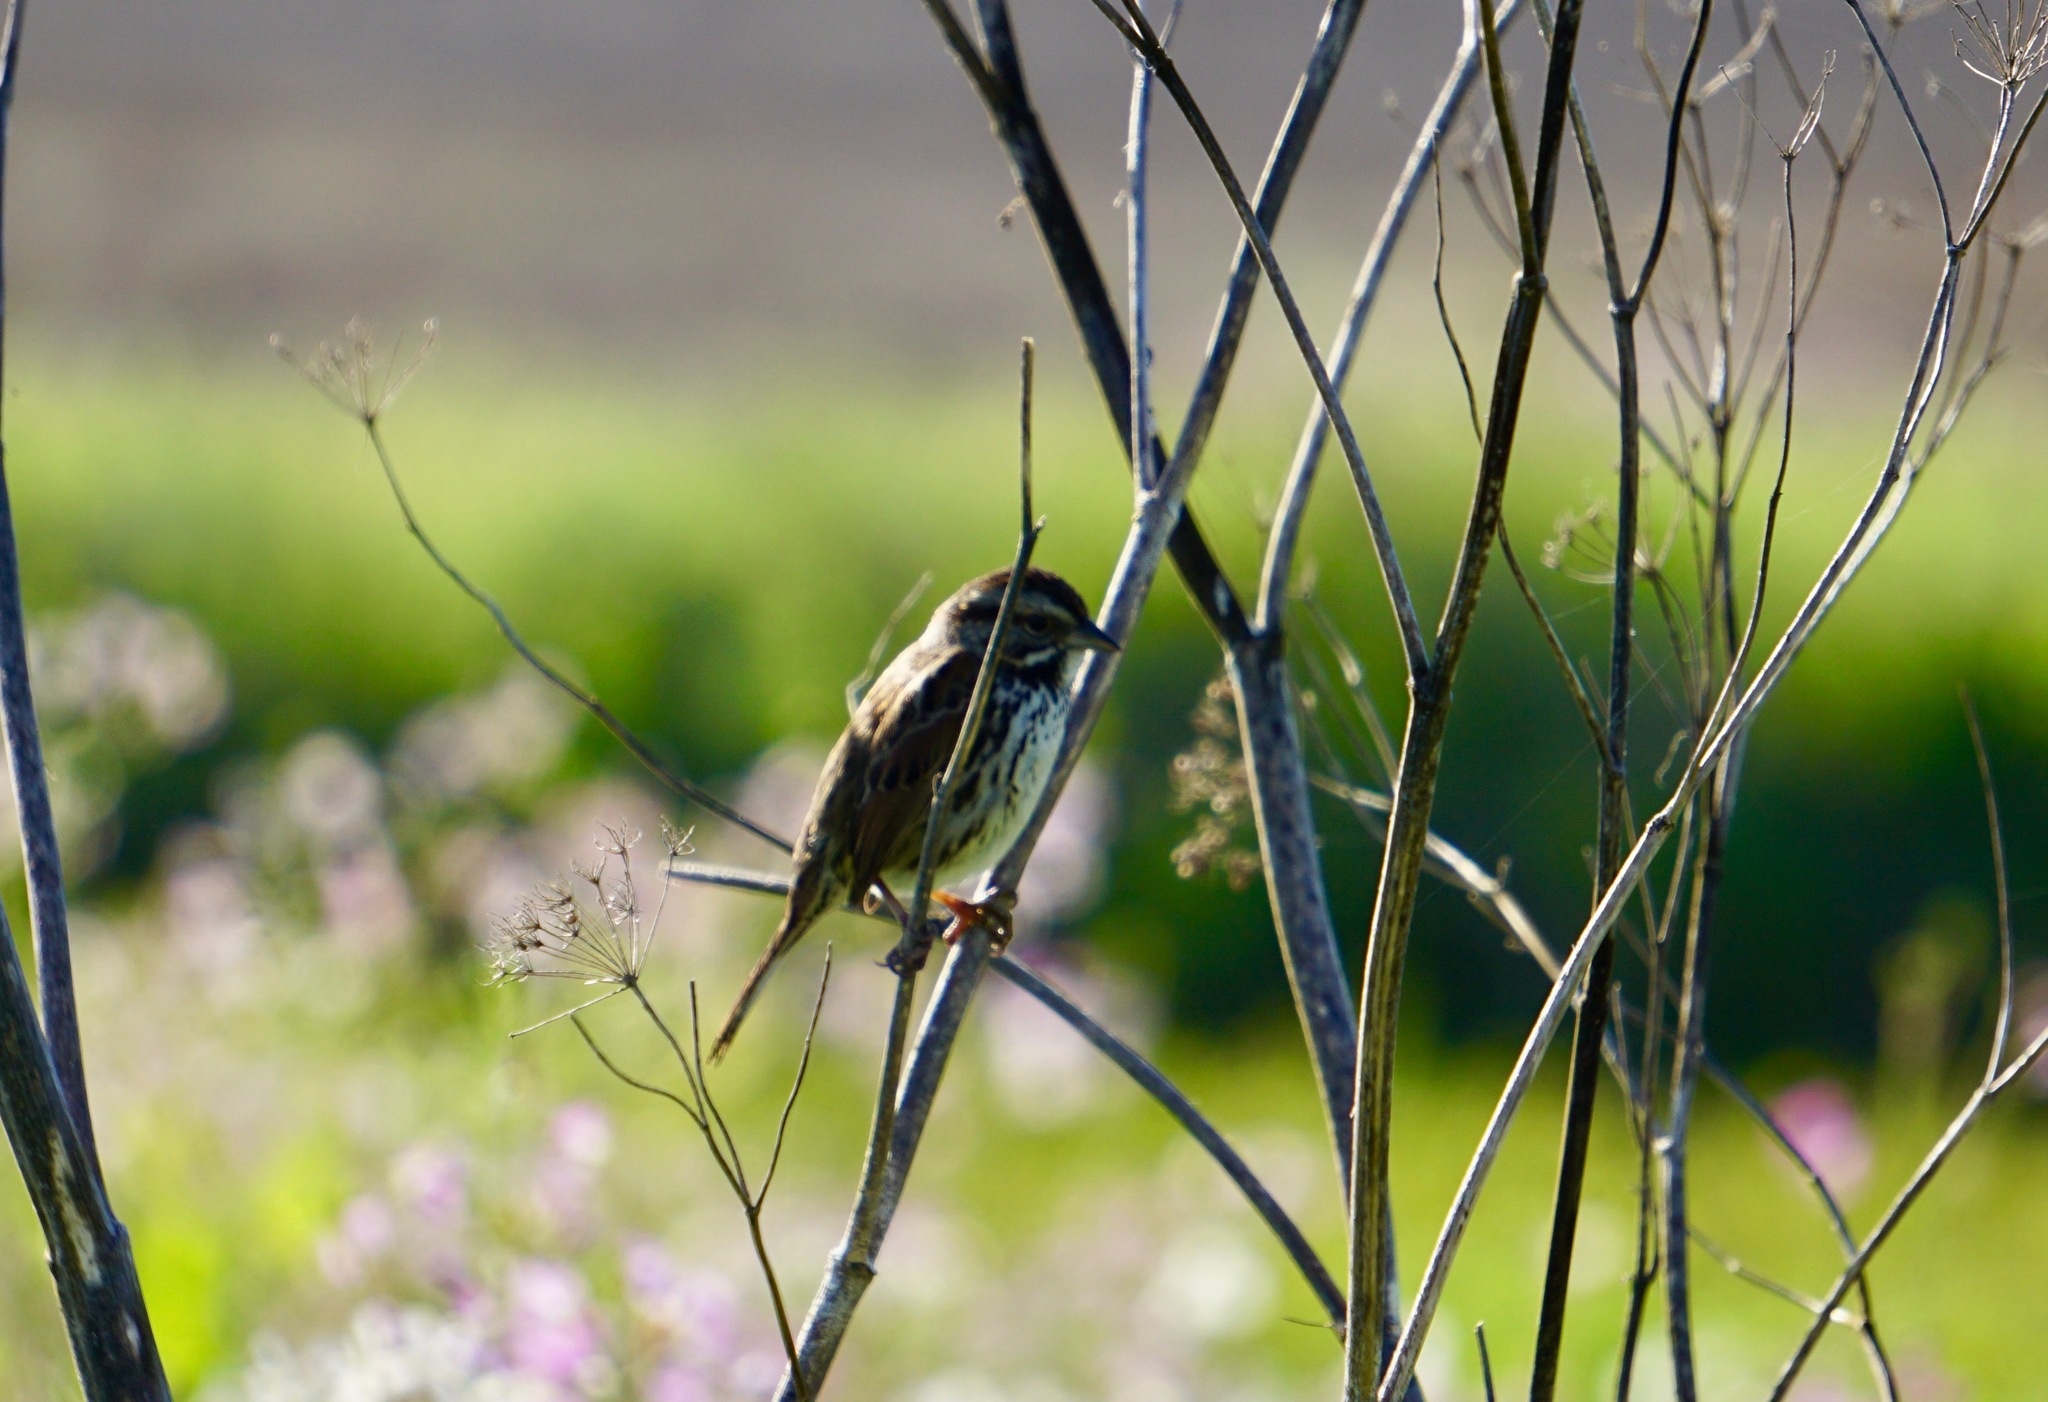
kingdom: Animalia
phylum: Chordata
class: Aves
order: Passeriformes
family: Passerellidae
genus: Melospiza
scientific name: Melospiza melodia
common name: Song sparrow
